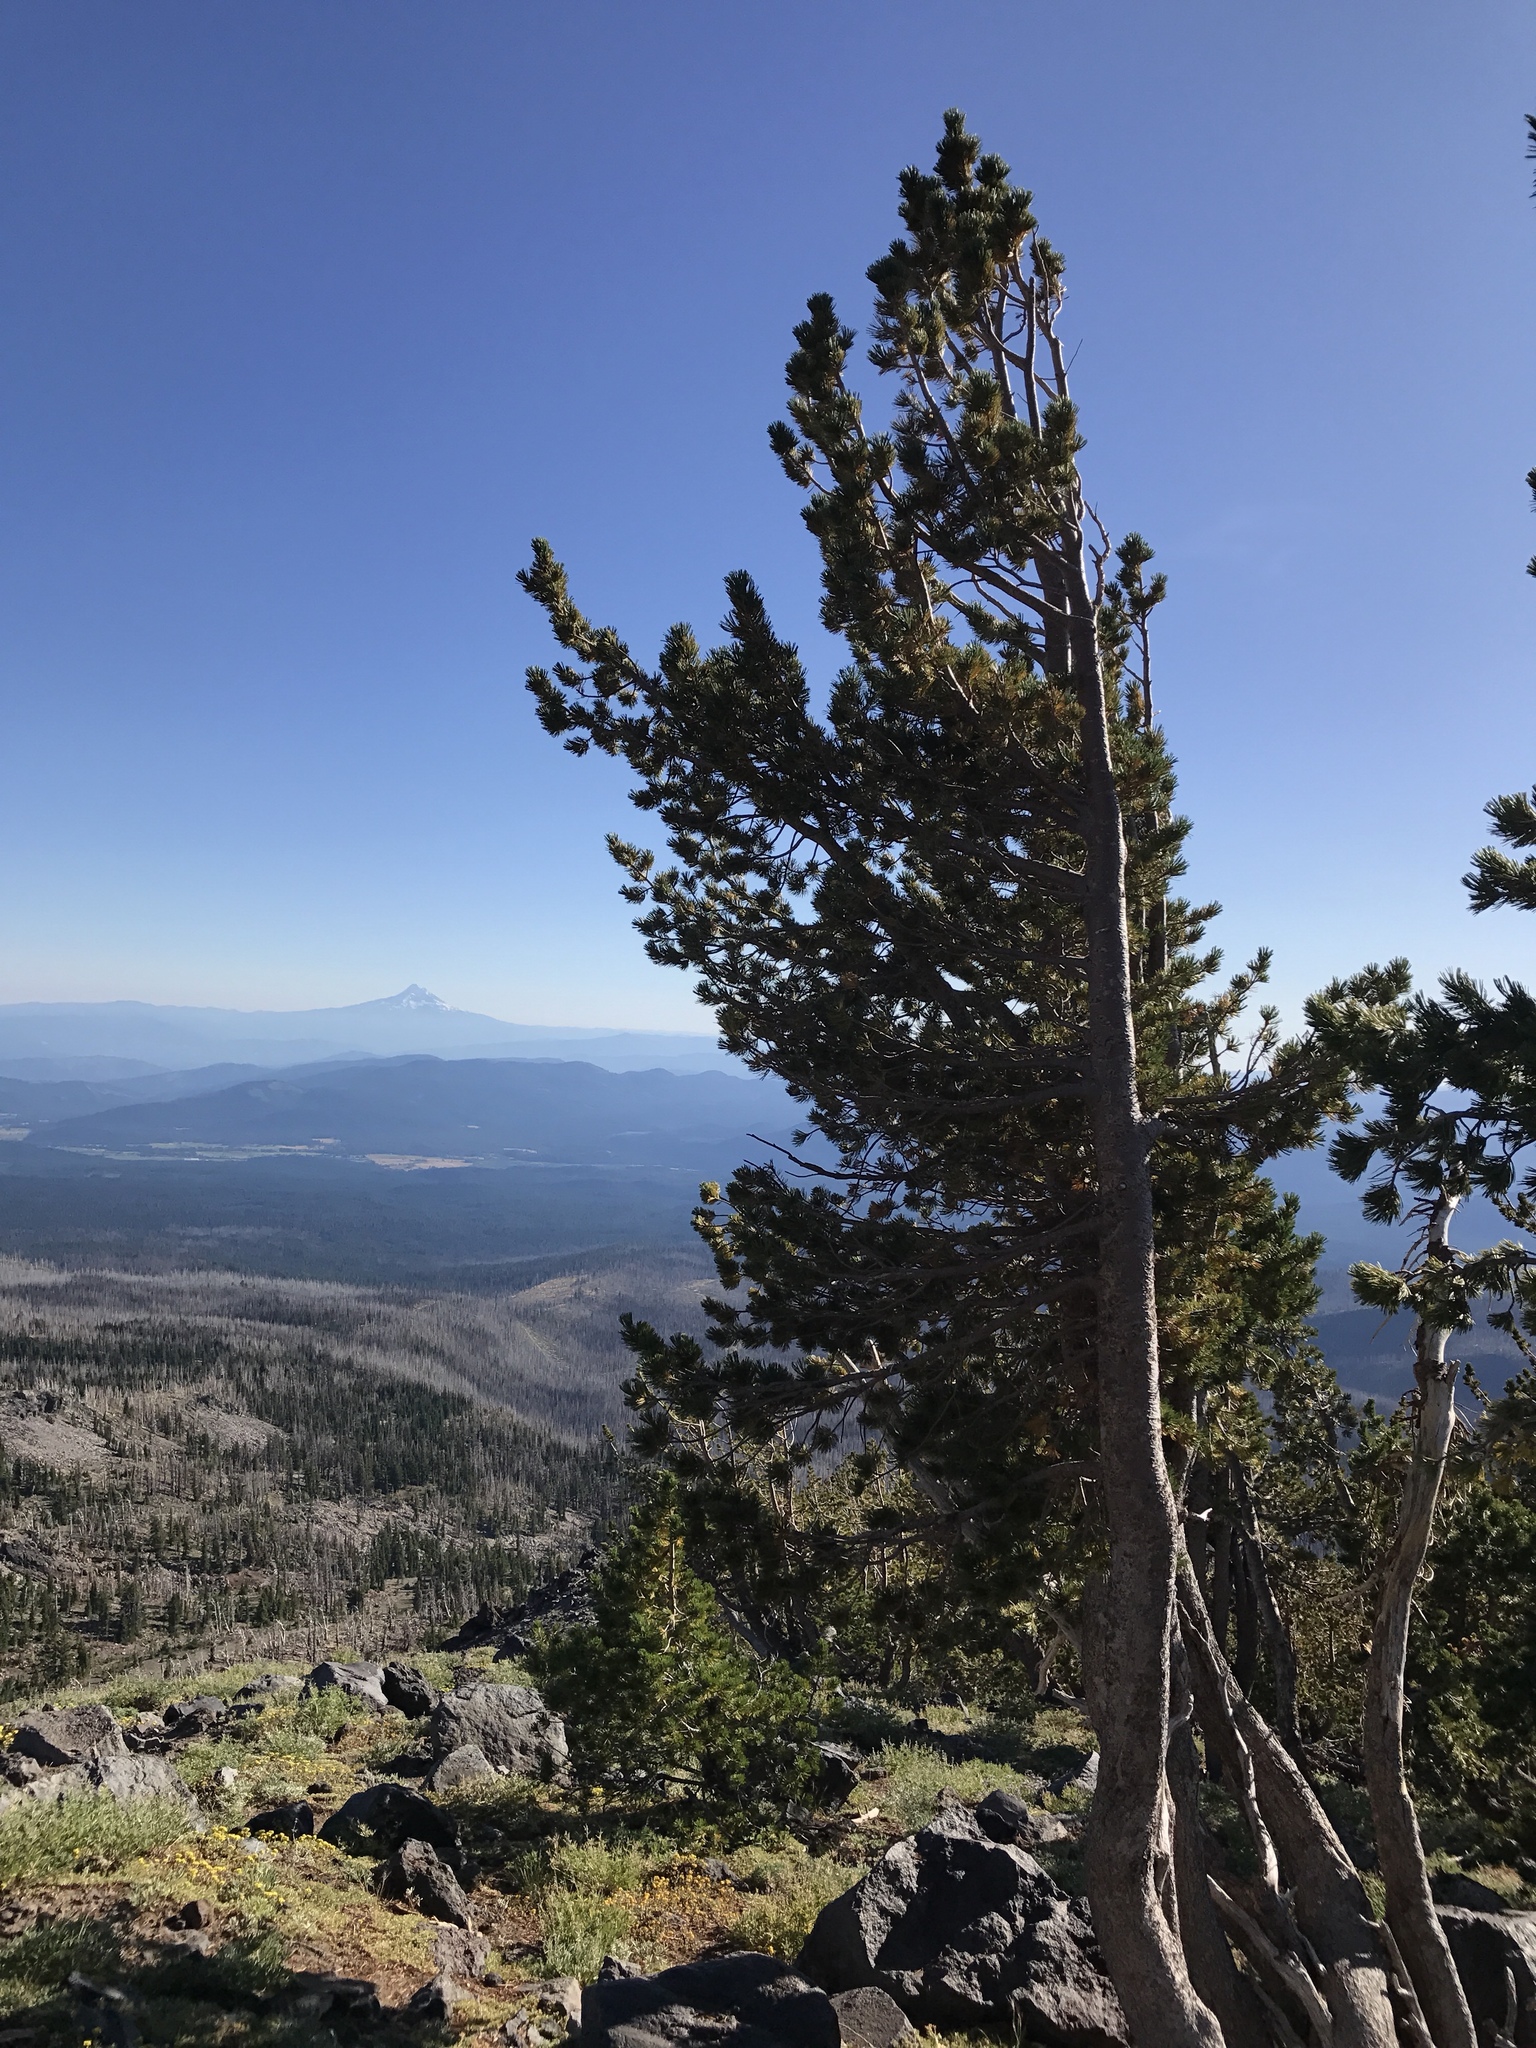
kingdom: Plantae
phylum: Tracheophyta
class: Pinopsida
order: Pinales
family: Pinaceae
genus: Pinus
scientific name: Pinus albicaulis
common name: Whitebark pine
